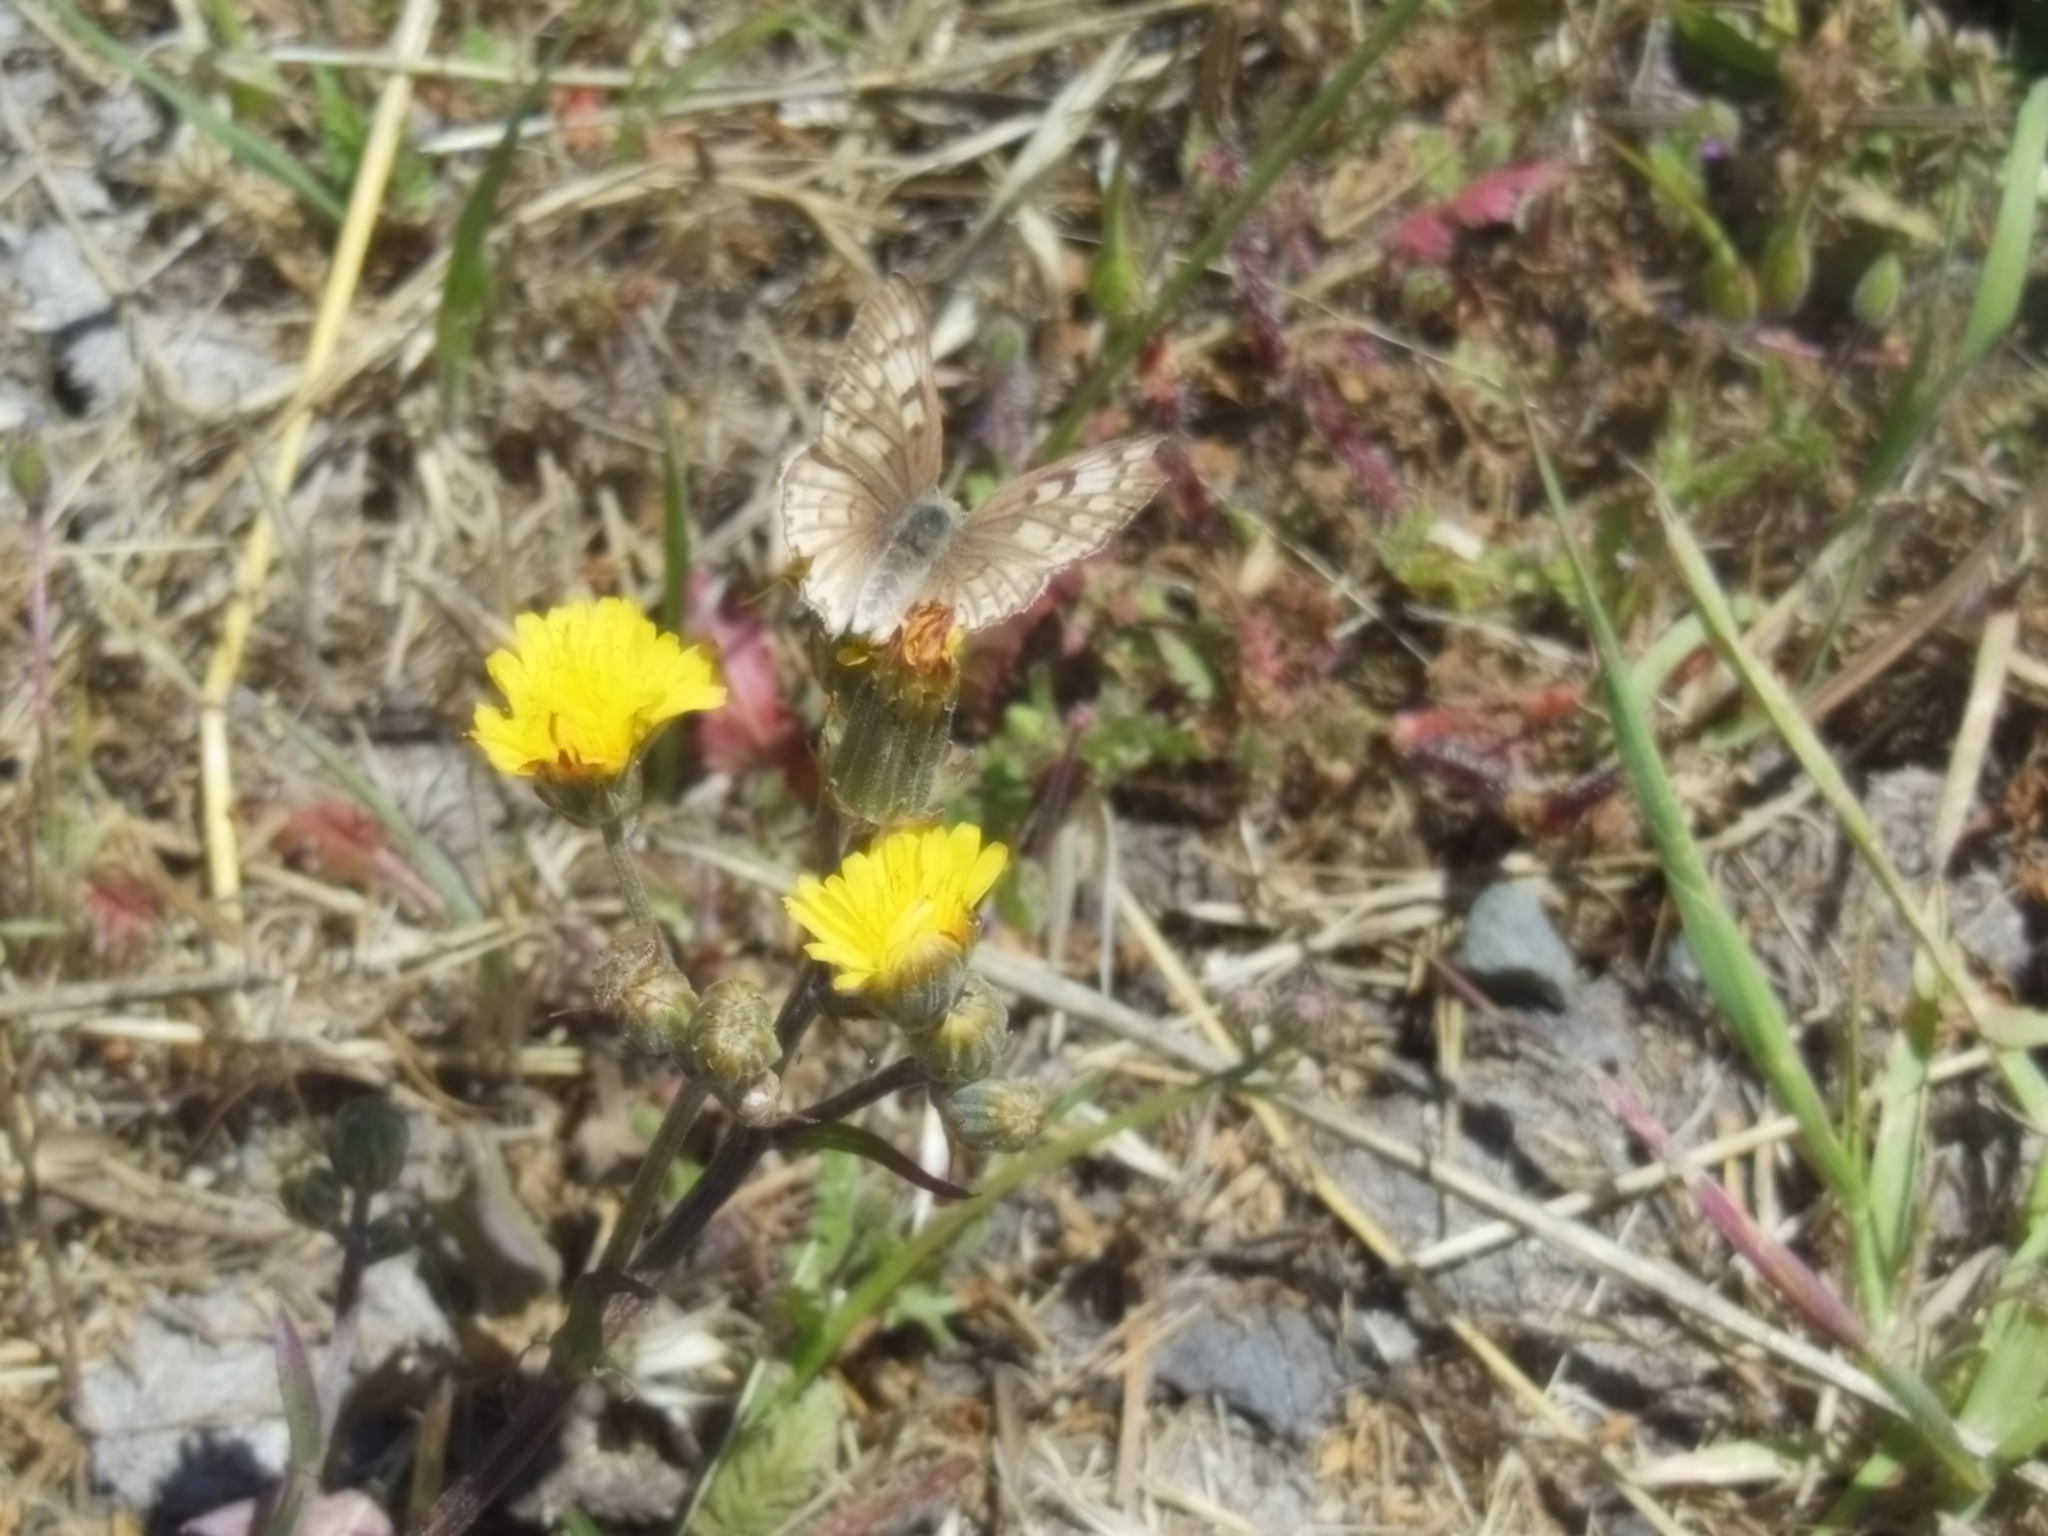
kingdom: Animalia
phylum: Arthropoda
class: Insecta
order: Lepidoptera
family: Lycaenidae
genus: Tharsalea
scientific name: Tharsalea gorgon
